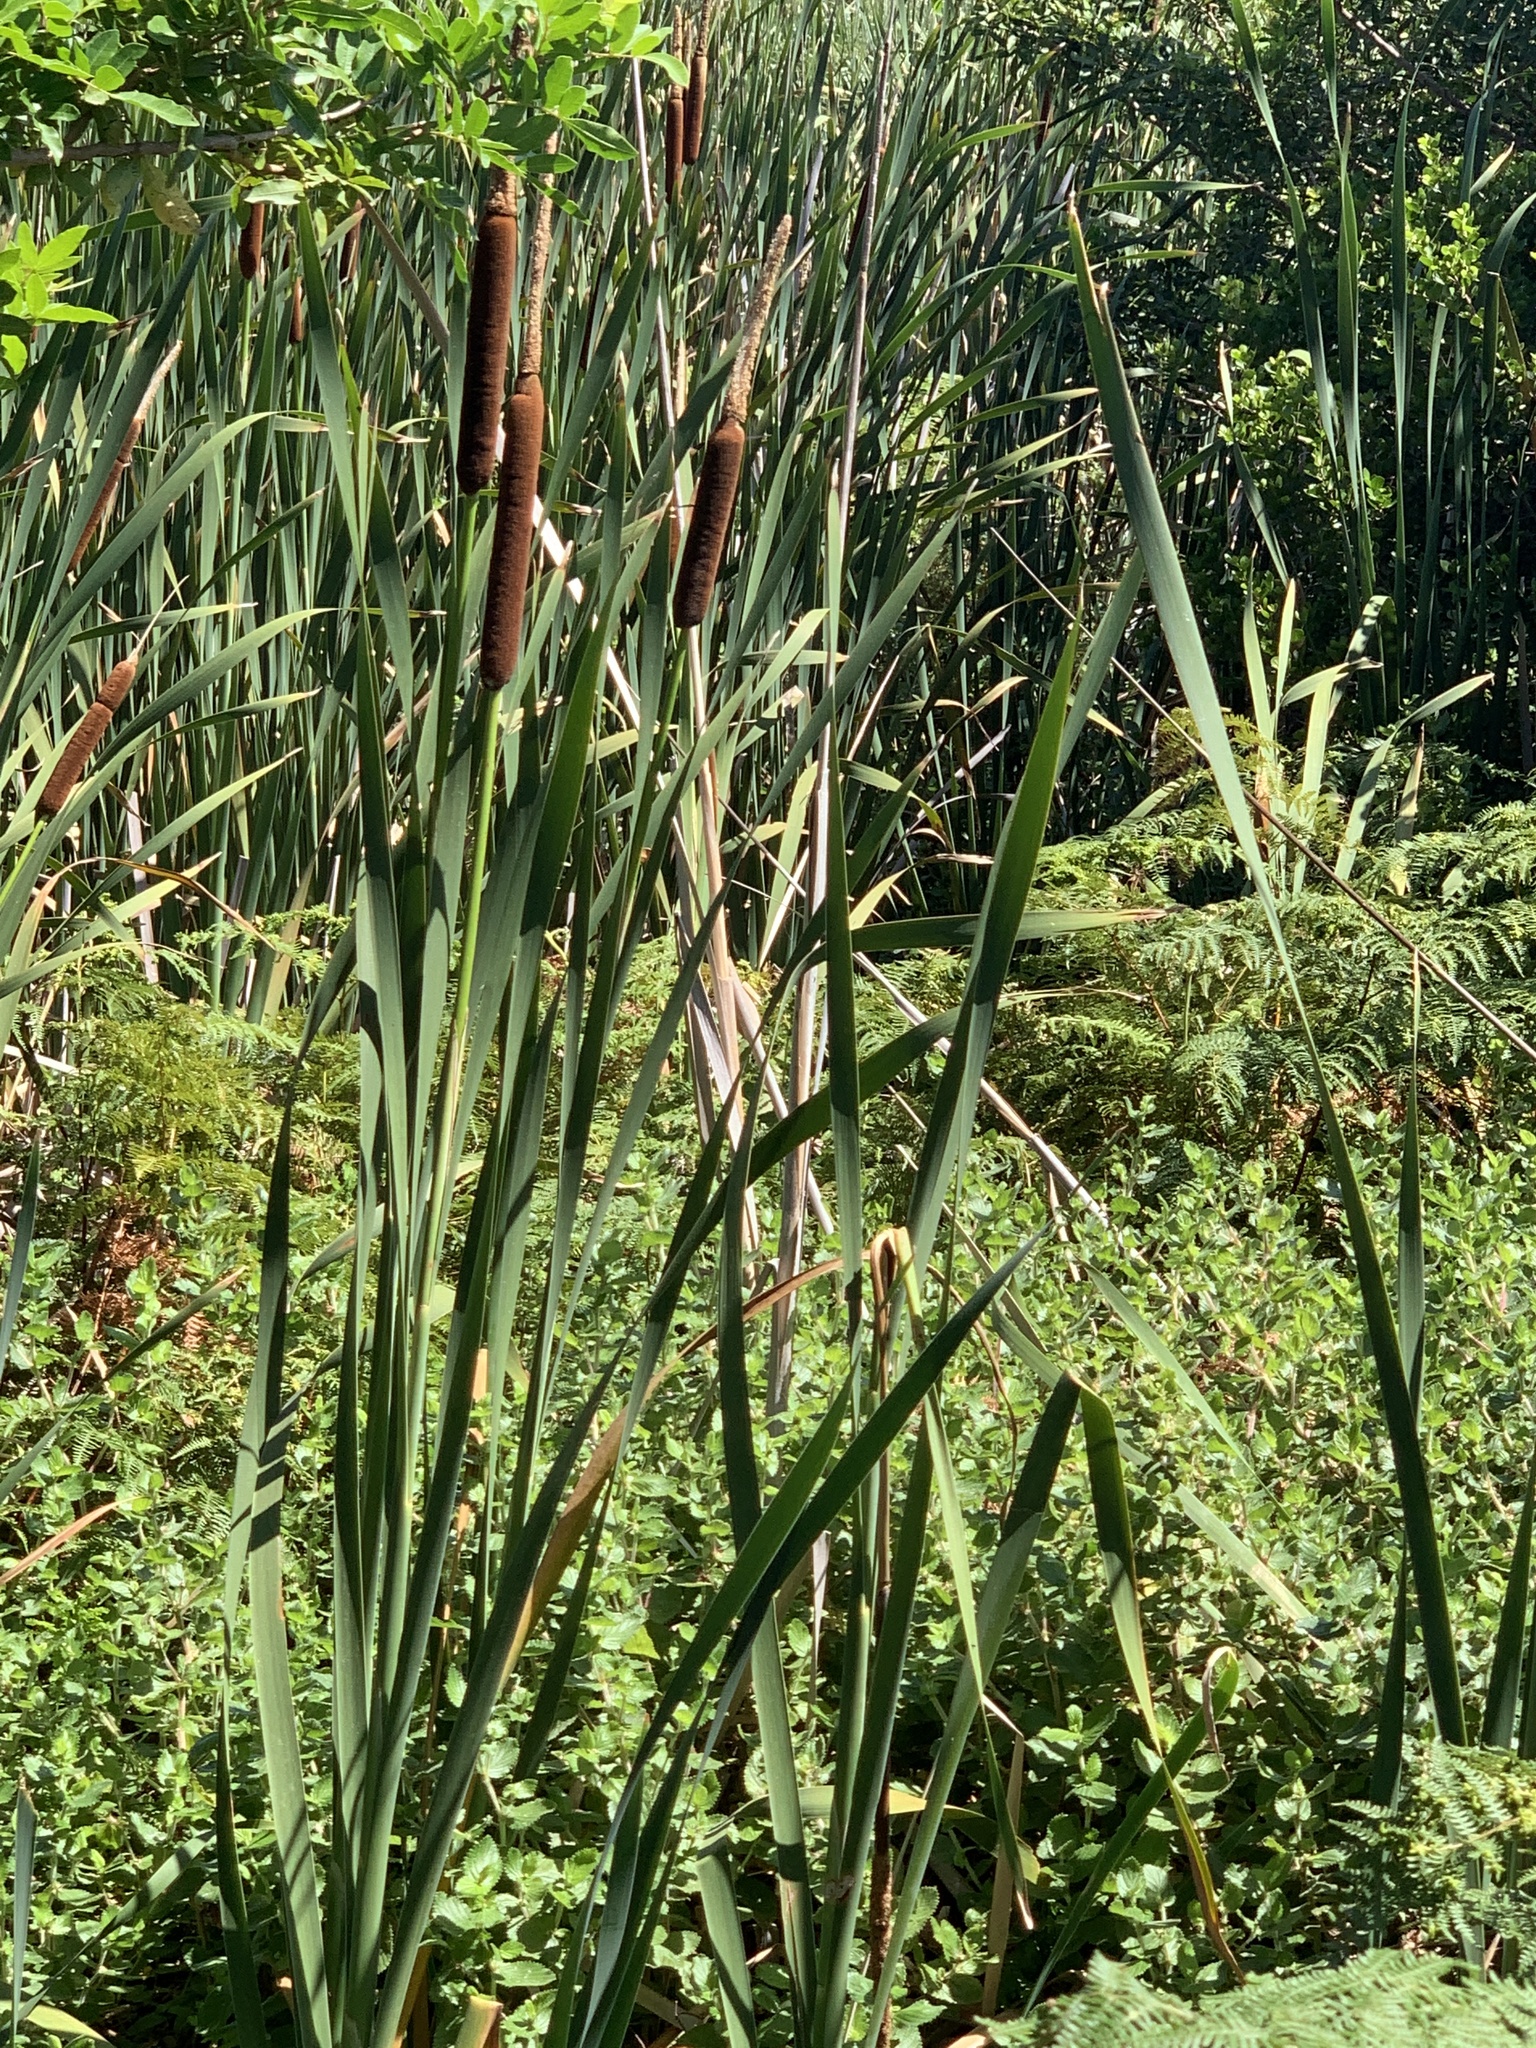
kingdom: Plantae
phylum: Tracheophyta
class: Liliopsida
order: Poales
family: Typhaceae
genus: Typha
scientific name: Typha capensis
